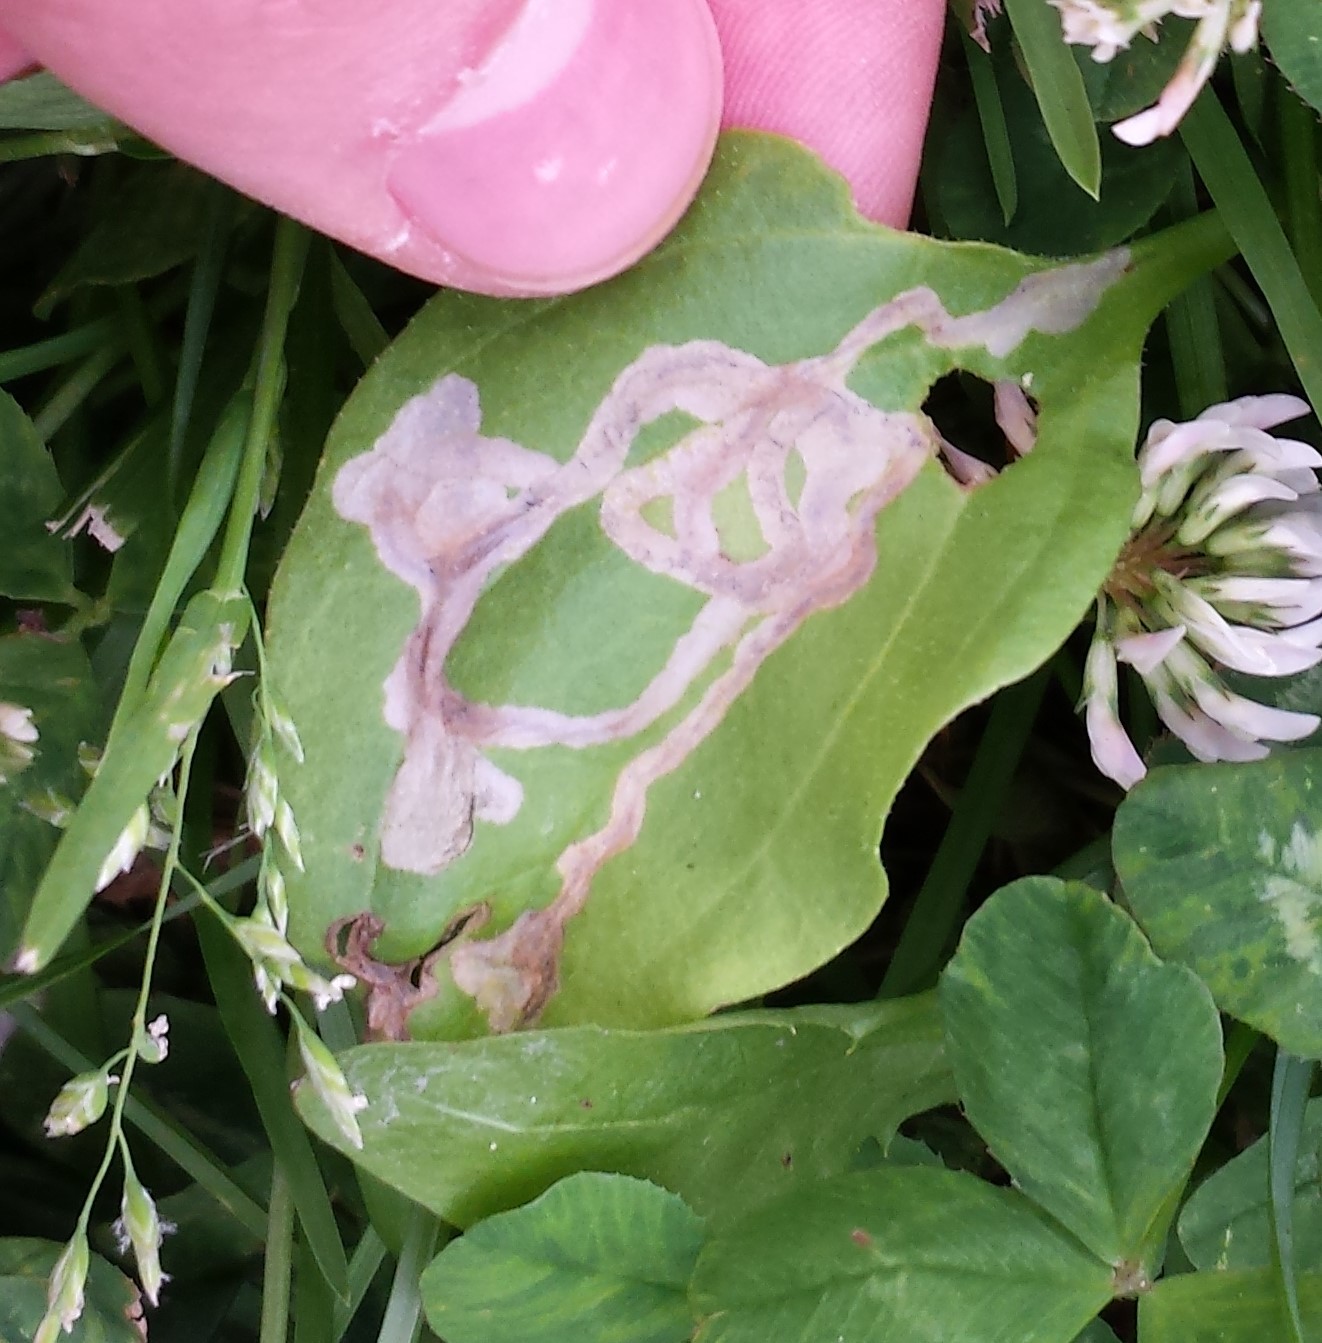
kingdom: Animalia
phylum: Arthropoda
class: Insecta
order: Coleoptera
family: Chrysomelidae
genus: Dibolia
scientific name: Dibolia borealis
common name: Northern plantain flea beetle
